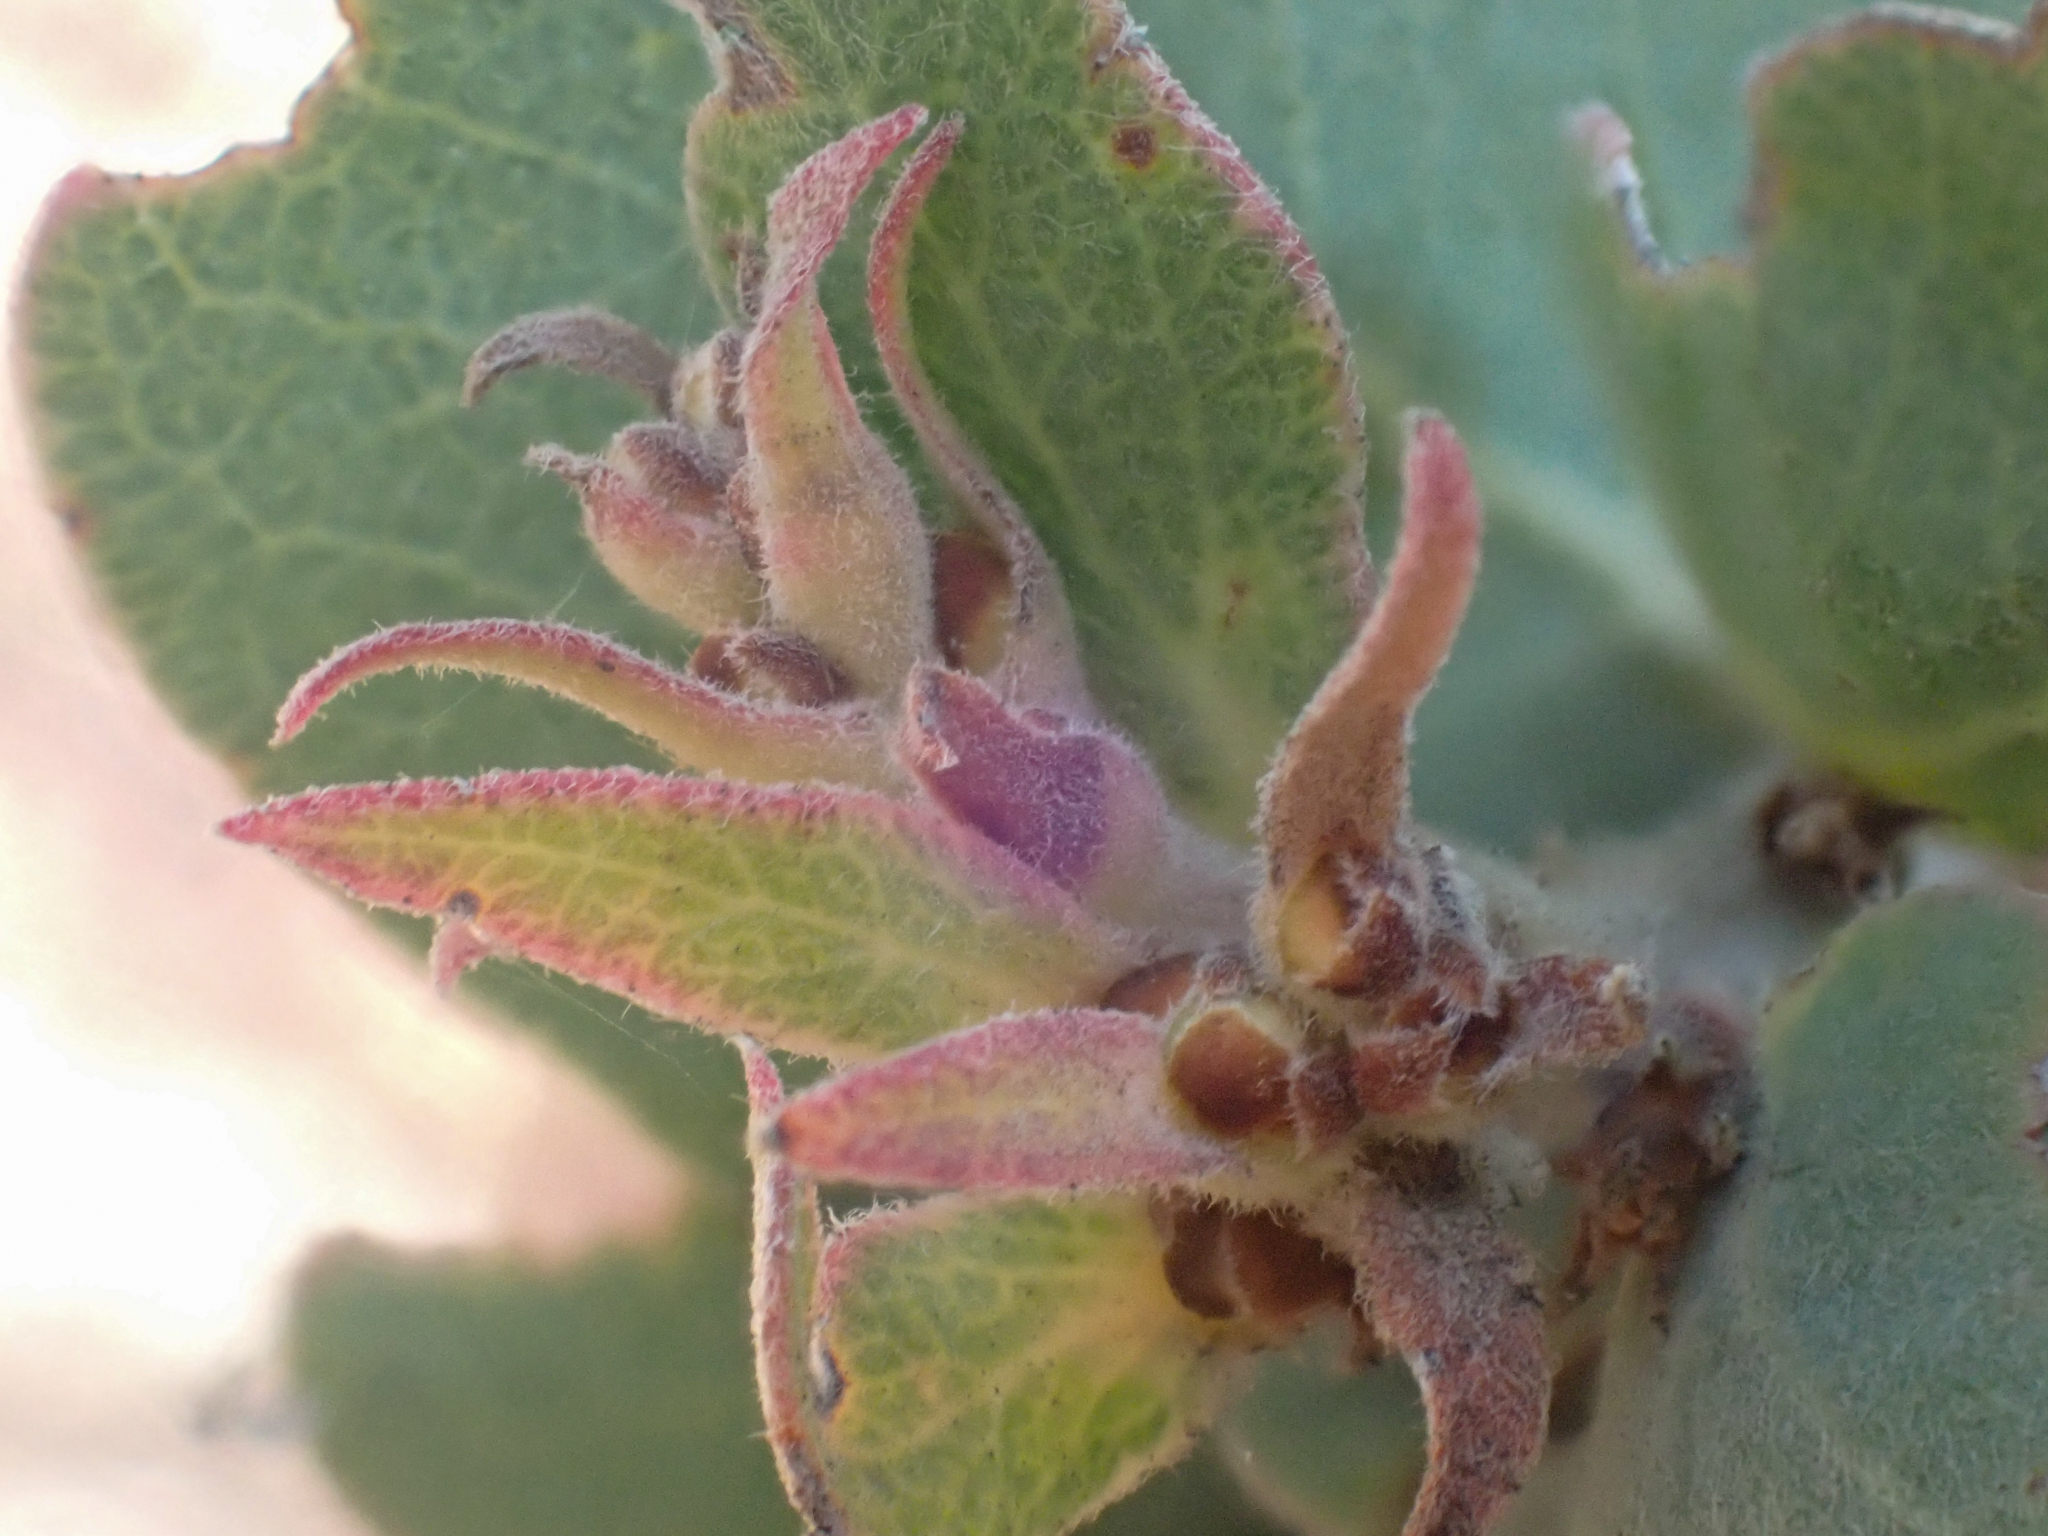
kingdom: Plantae
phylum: Tracheophyta
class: Magnoliopsida
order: Ericales
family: Ericaceae
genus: Arctostaphylos
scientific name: Arctostaphylos luciana
